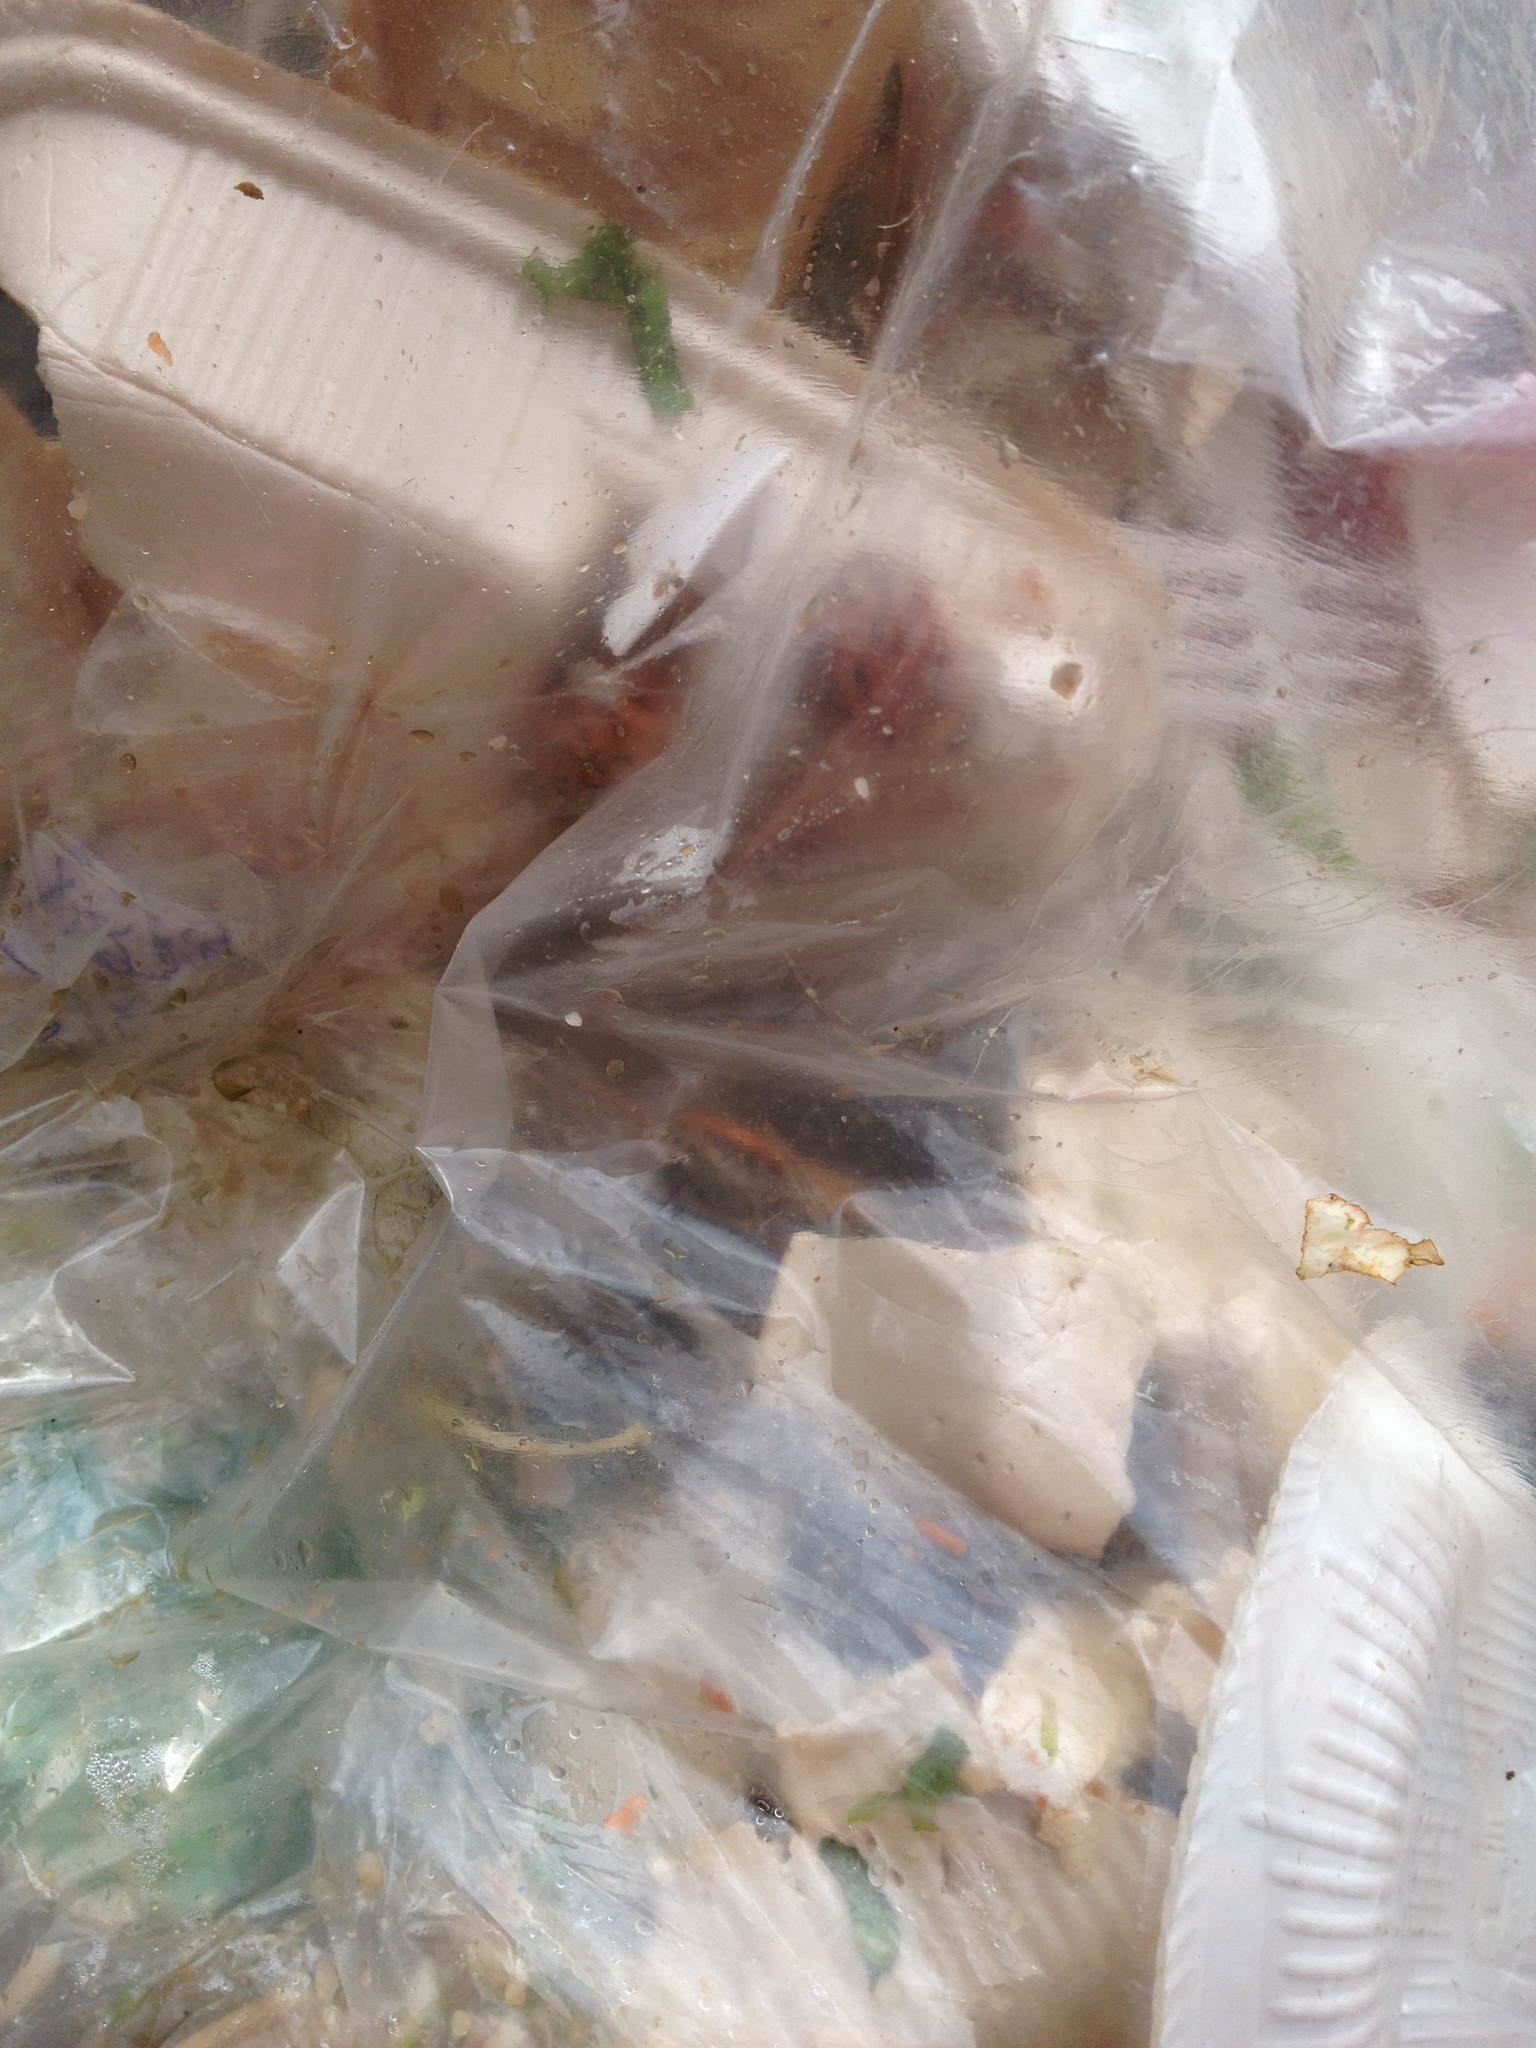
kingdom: Animalia
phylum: Chordata
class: Mammalia
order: Didelphimorphia
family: Didelphidae
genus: Didelphis
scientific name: Didelphis virginiana
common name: Virginia opossum
